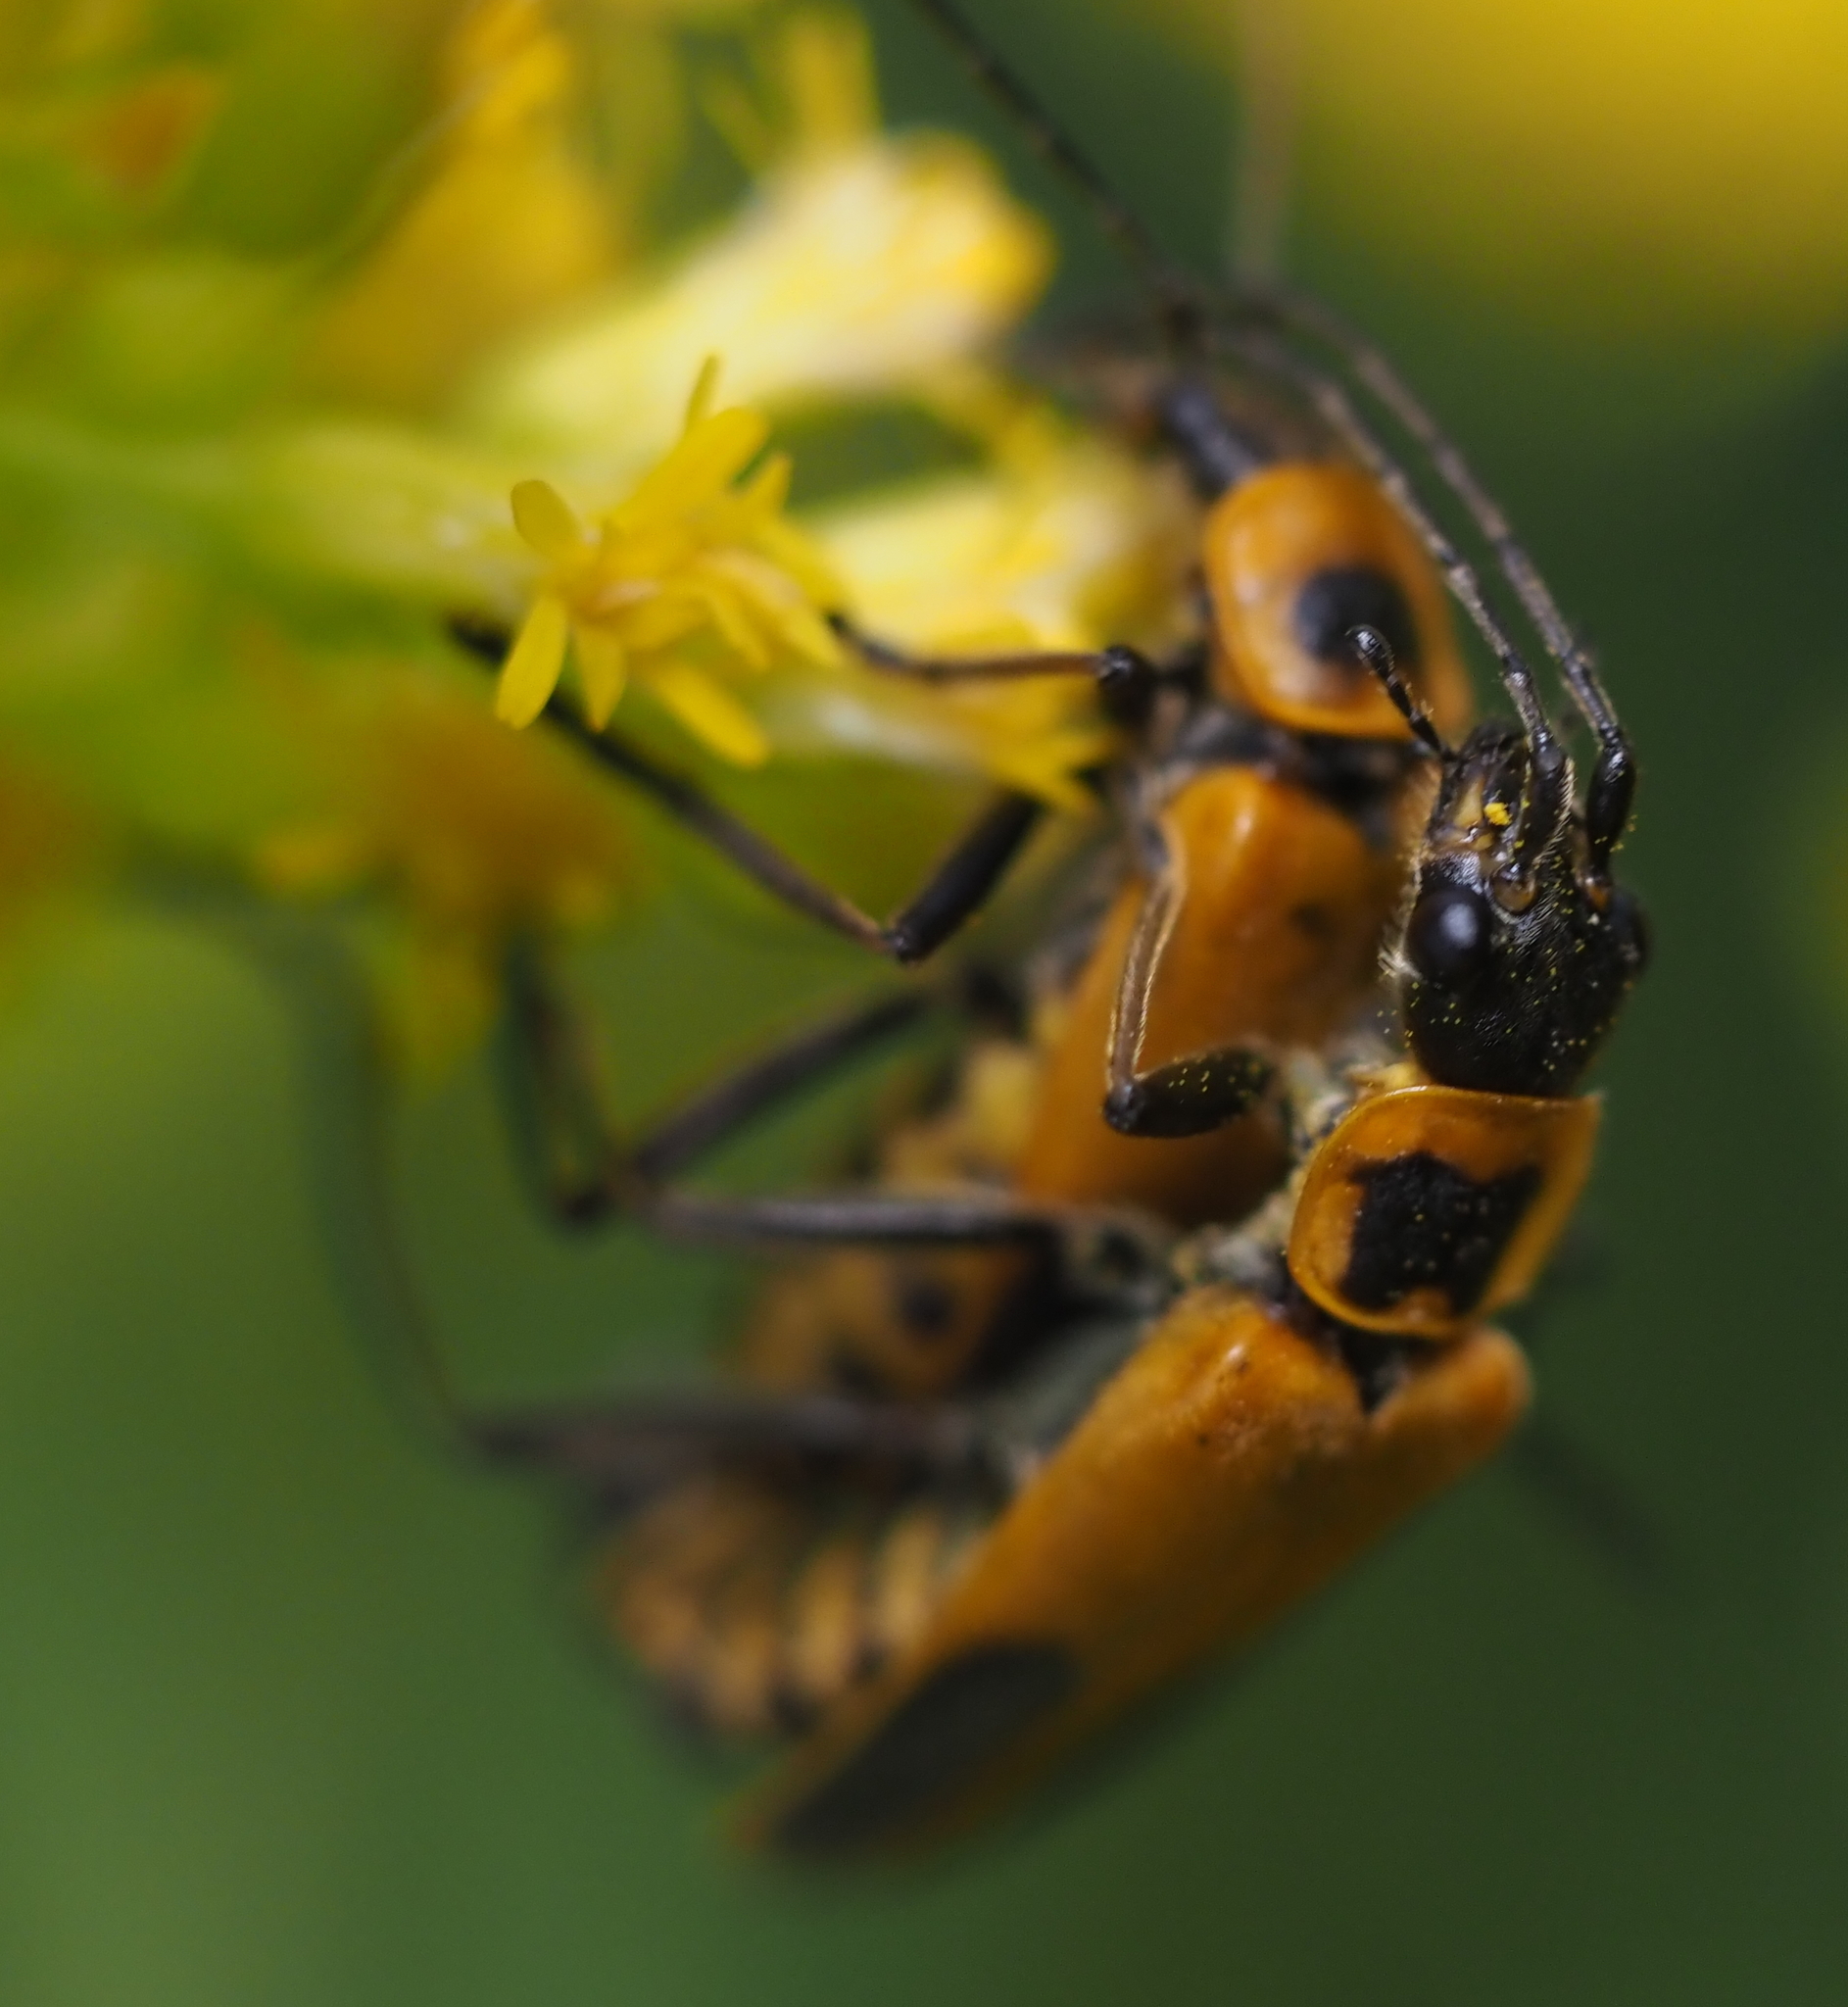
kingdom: Animalia
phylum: Arthropoda
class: Insecta
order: Coleoptera
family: Cantharidae
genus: Chauliognathus
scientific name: Chauliognathus pensylvanicus
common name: Goldenrod soldier beetle
